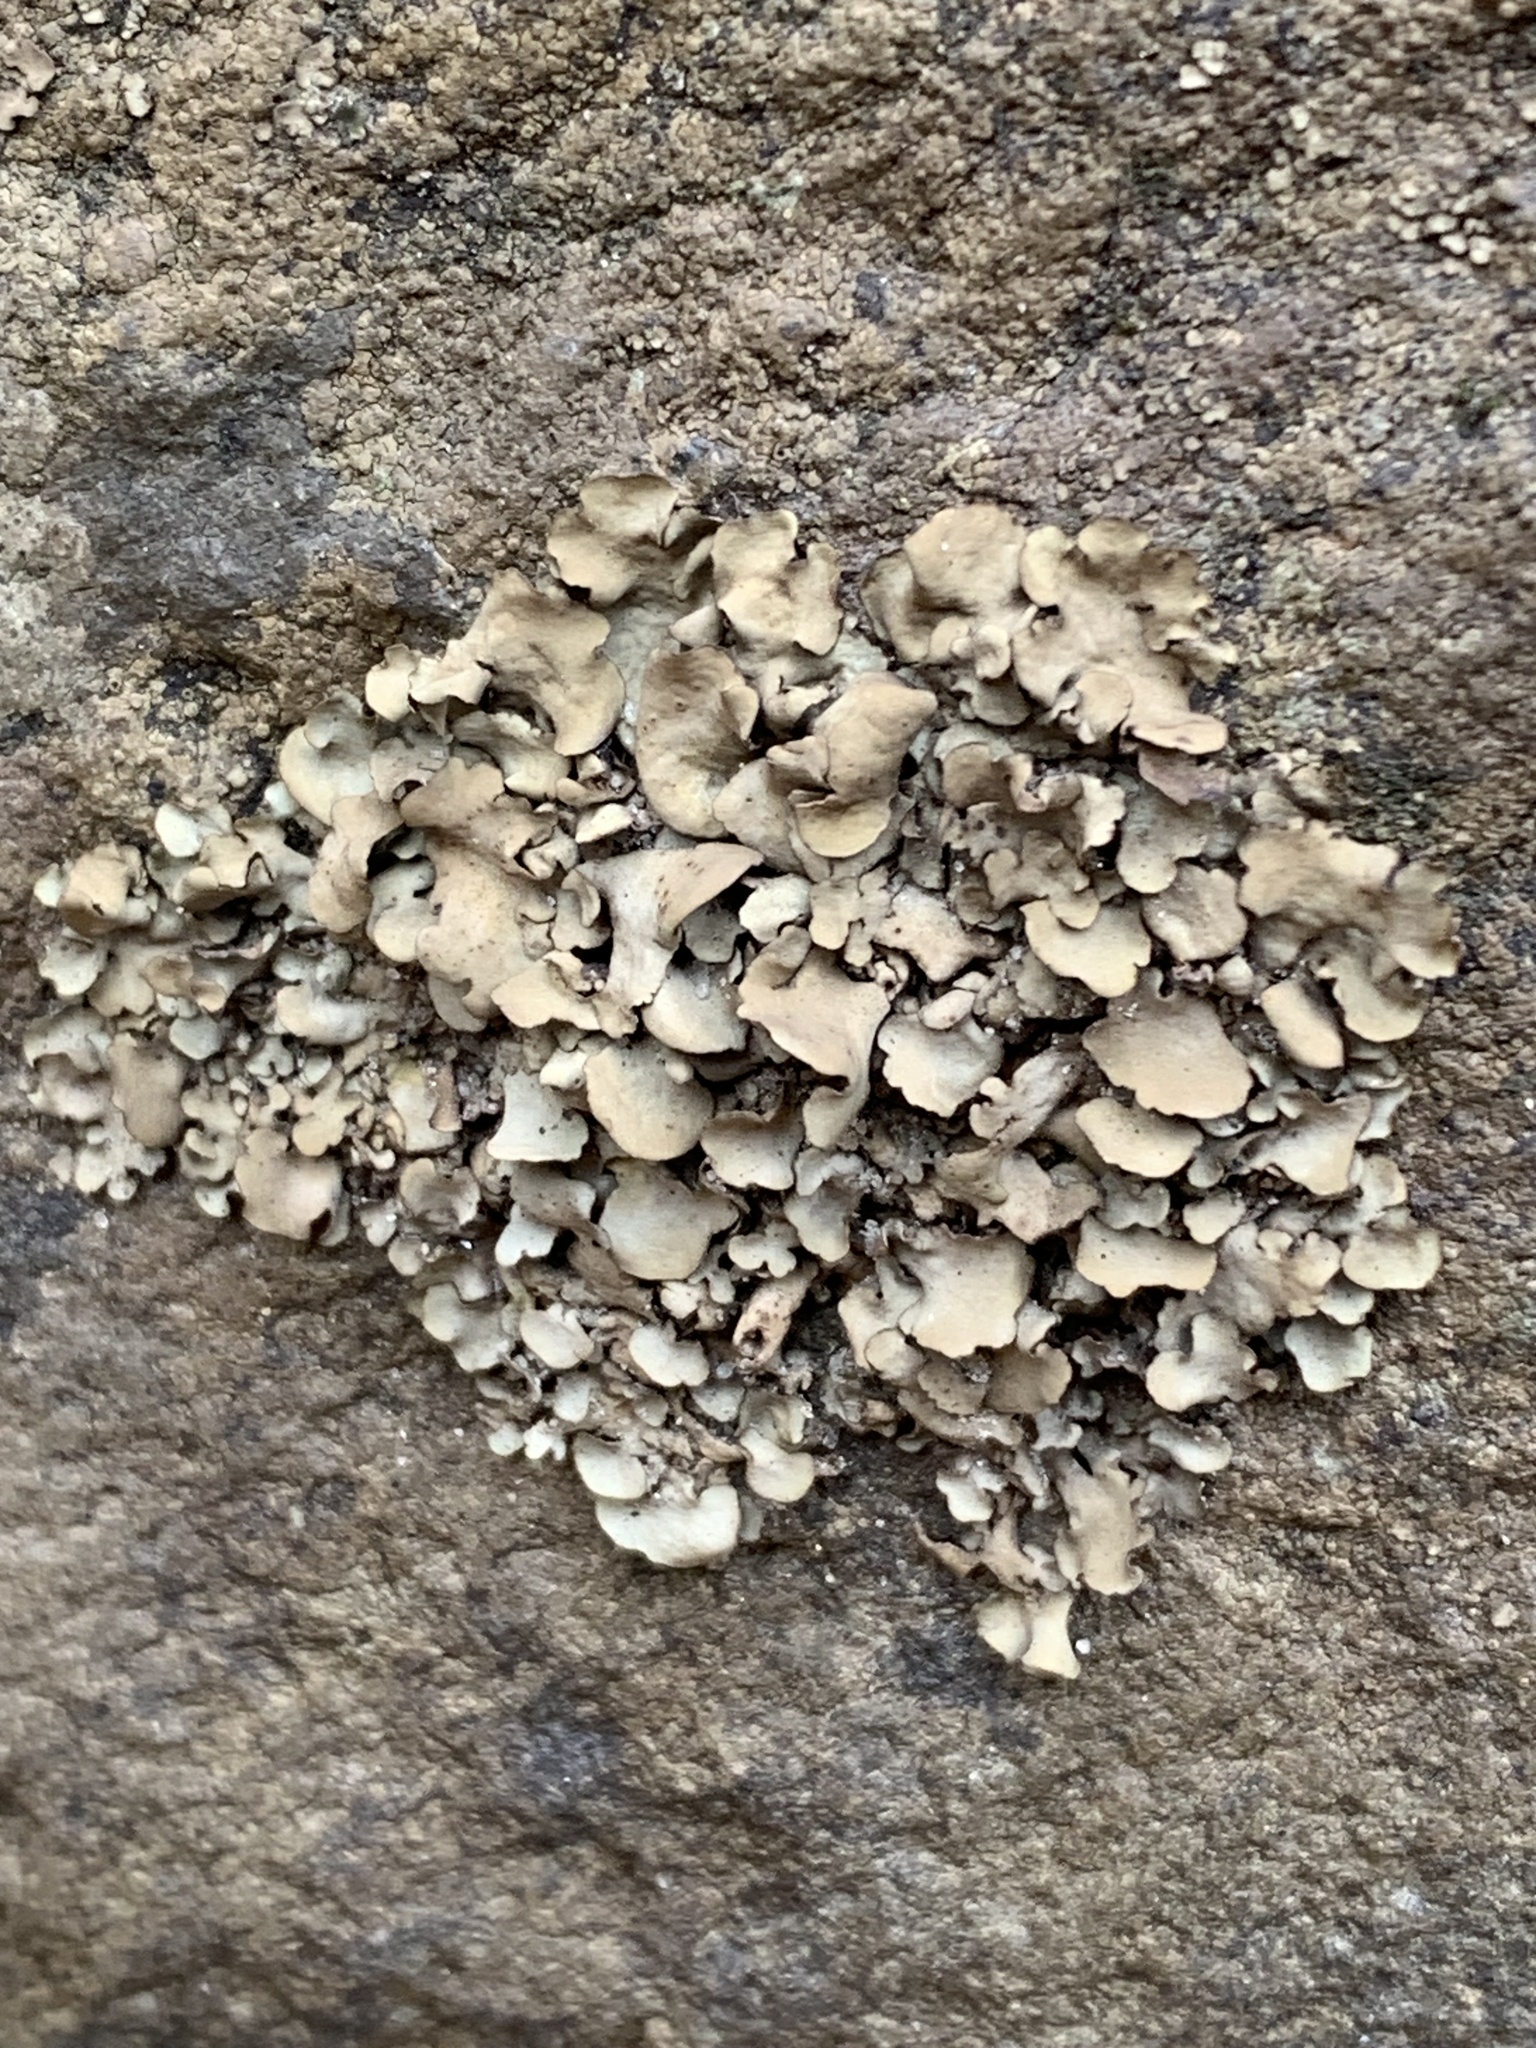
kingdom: Fungi
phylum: Ascomycota
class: Eurotiomycetes
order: Verrucariales
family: Verrucariaceae
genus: Dermatocarpon
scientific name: Dermatocarpon luridum
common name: Brook stippleback lichen
